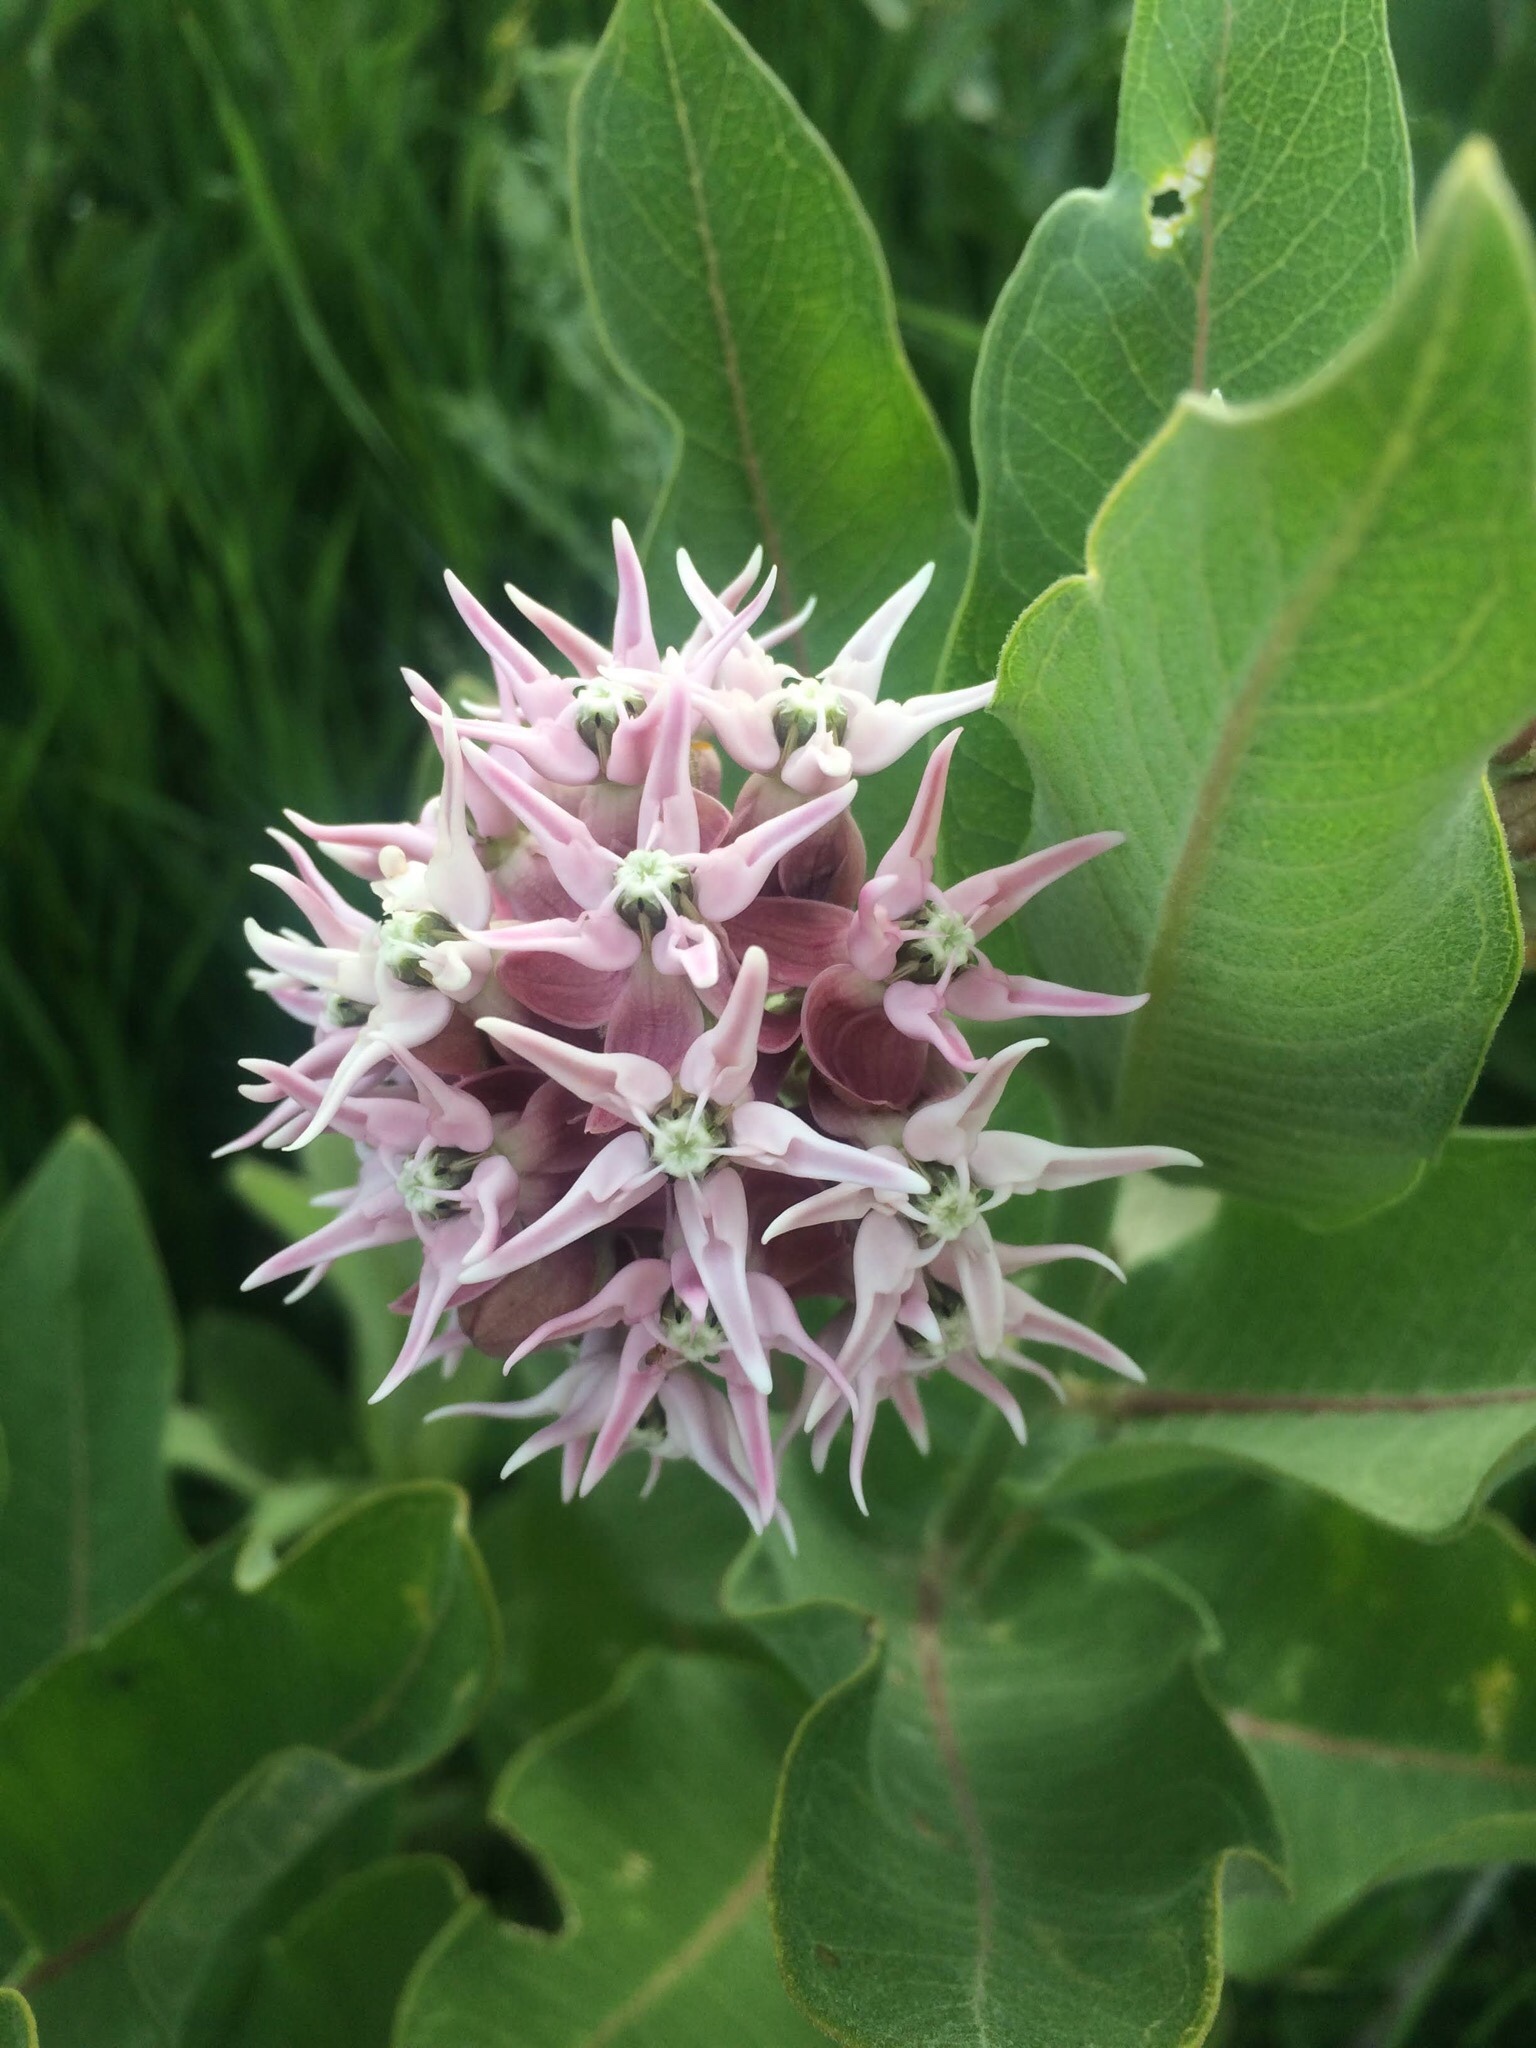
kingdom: Plantae
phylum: Tracheophyta
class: Magnoliopsida
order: Gentianales
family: Apocynaceae
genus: Asclepias
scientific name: Asclepias speciosa
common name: Showy milkweed
